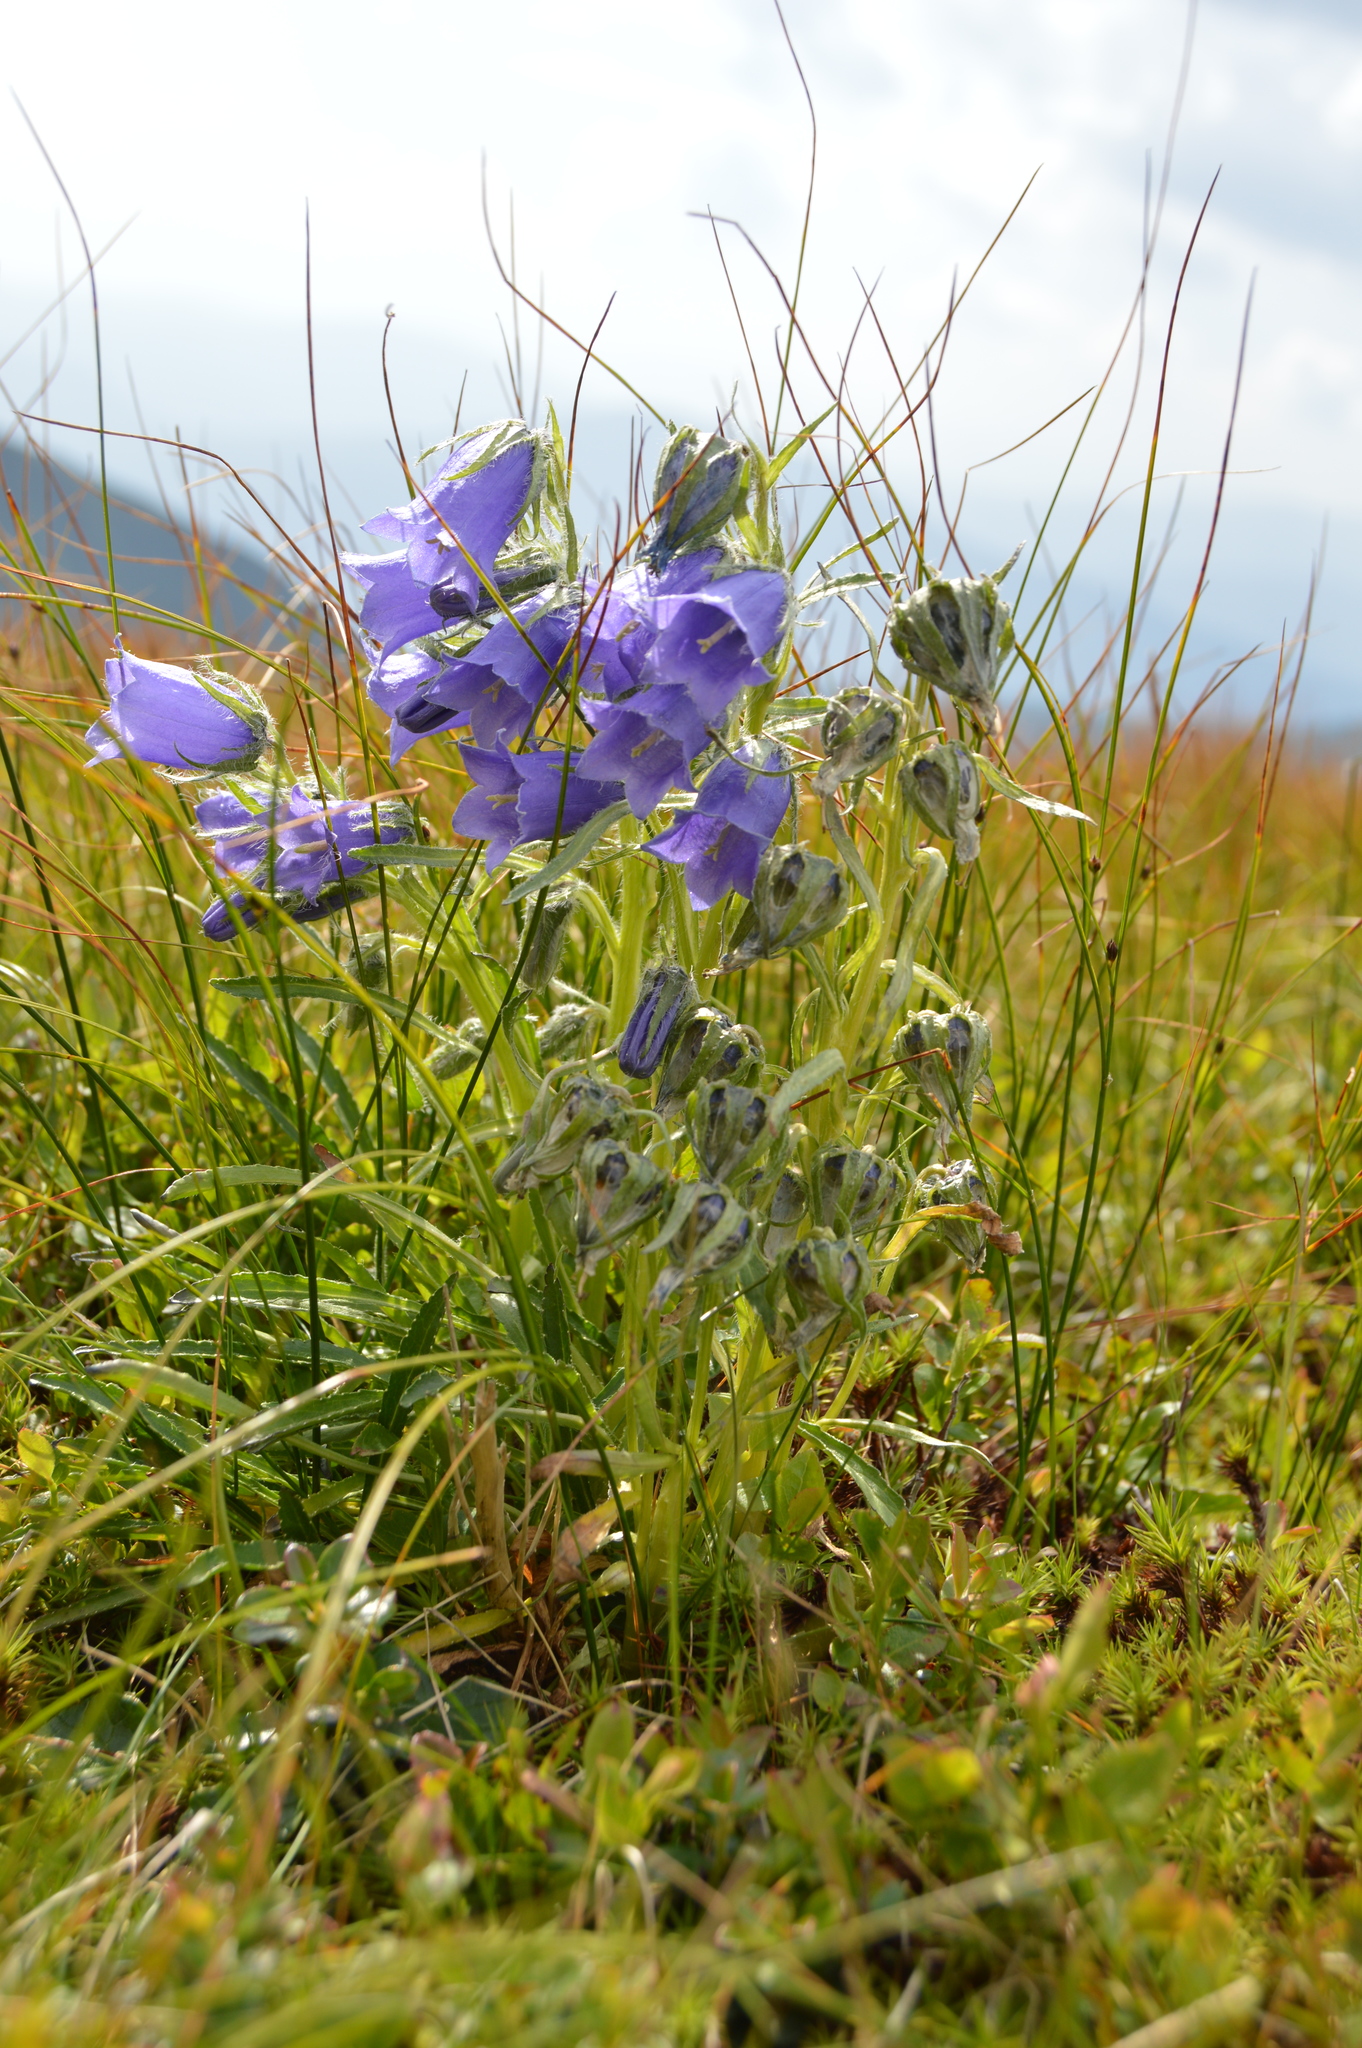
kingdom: Plantae
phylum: Tracheophyta
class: Magnoliopsida
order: Asterales
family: Campanulaceae
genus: Campanula
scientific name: Campanula alpina
